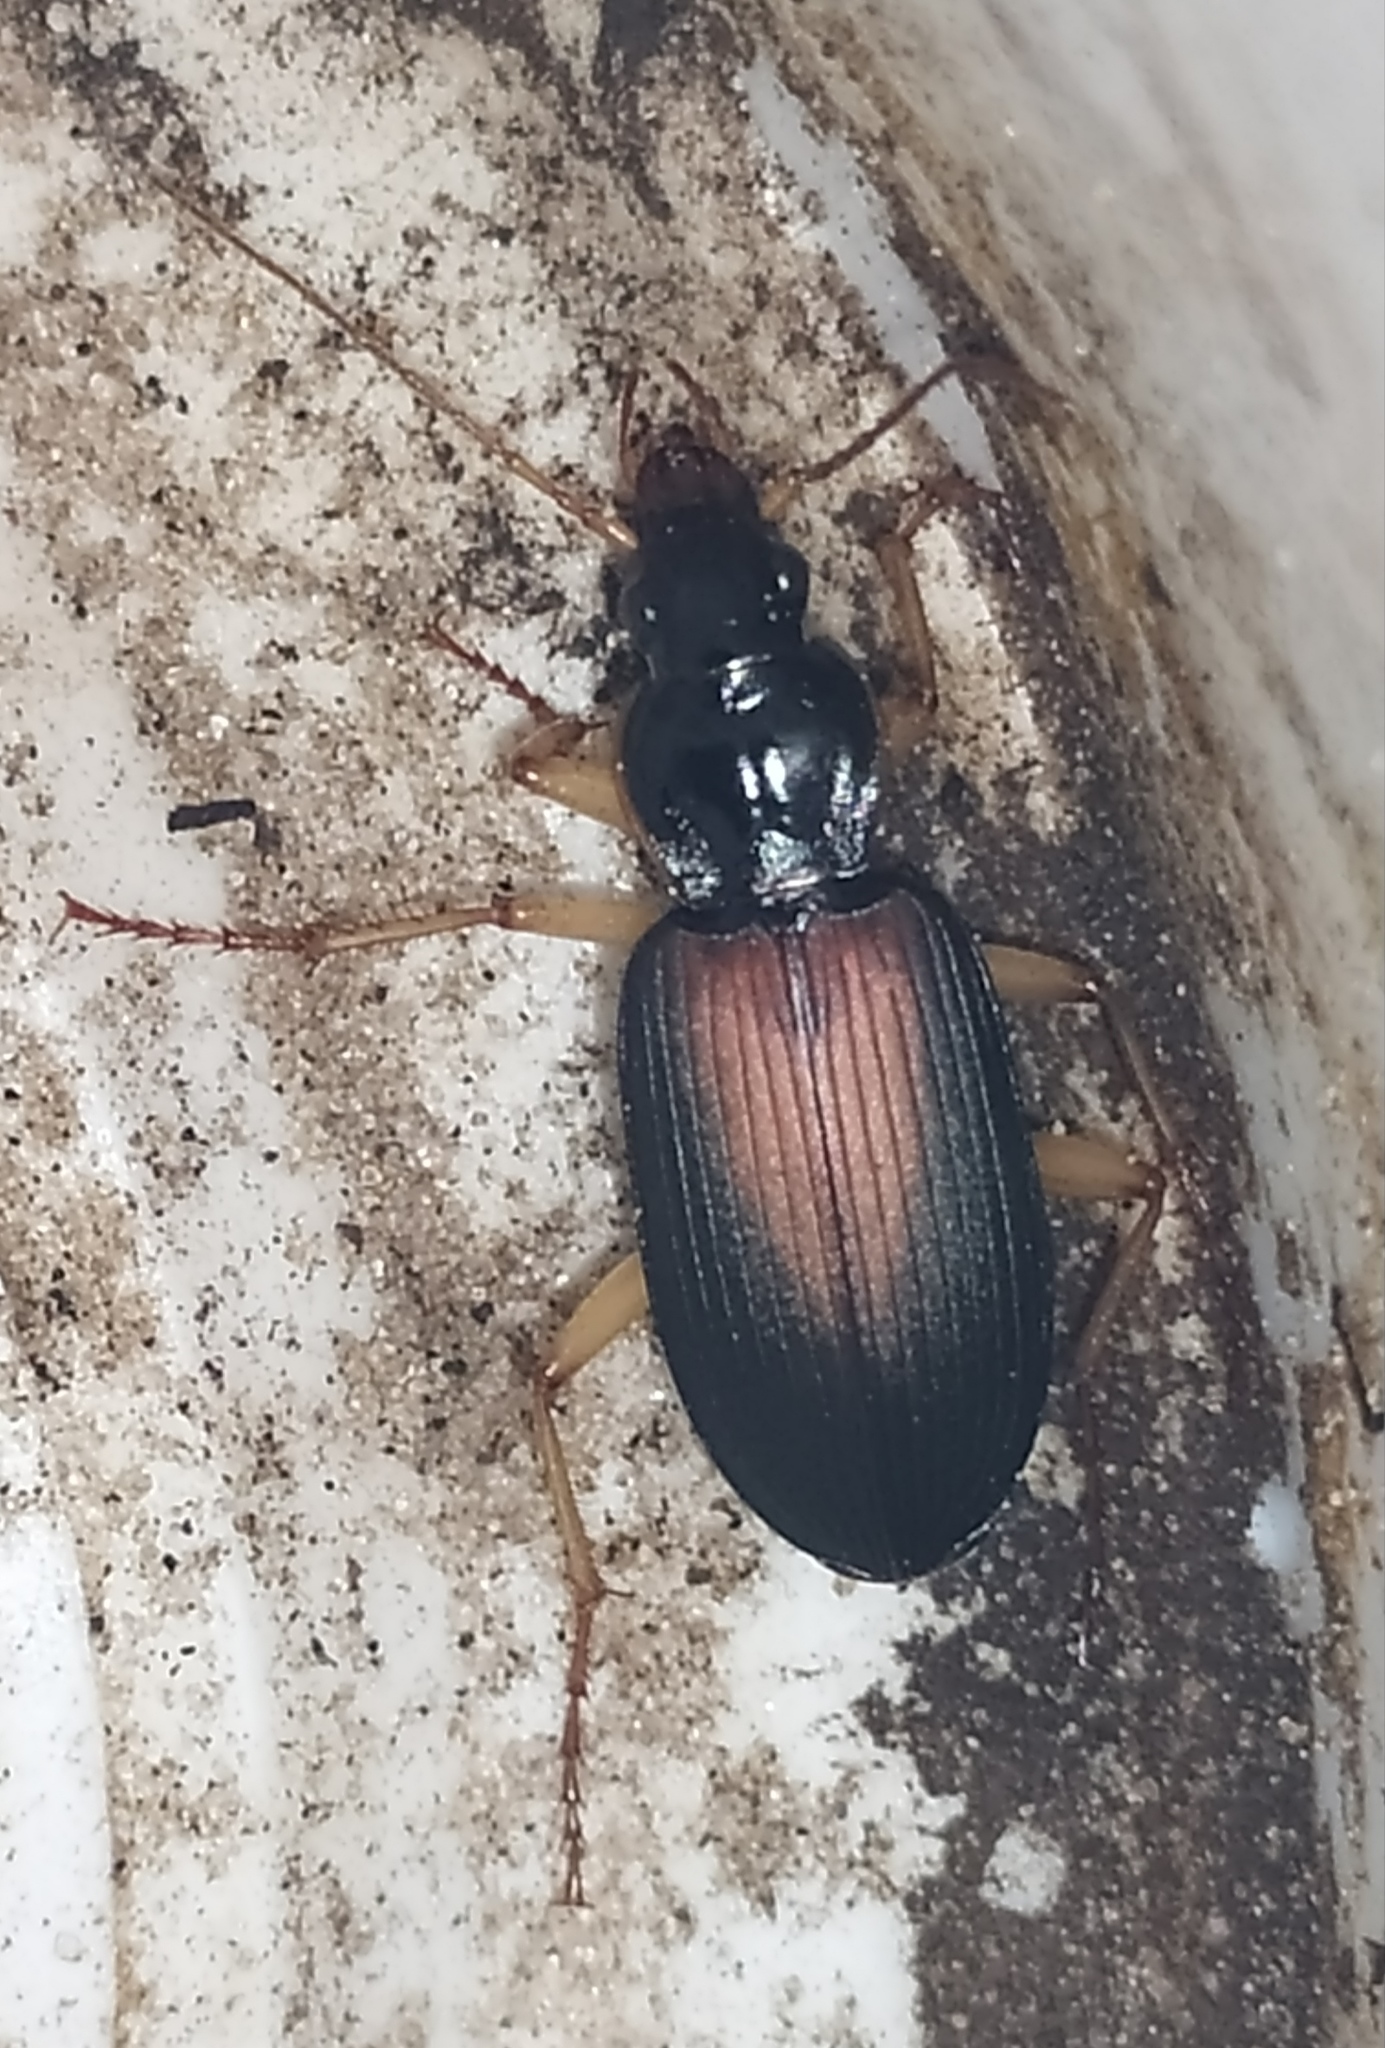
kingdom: Animalia
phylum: Arthropoda
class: Insecta
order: Coleoptera
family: Carabidae
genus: Dolichus
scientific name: Dolichus halensis
